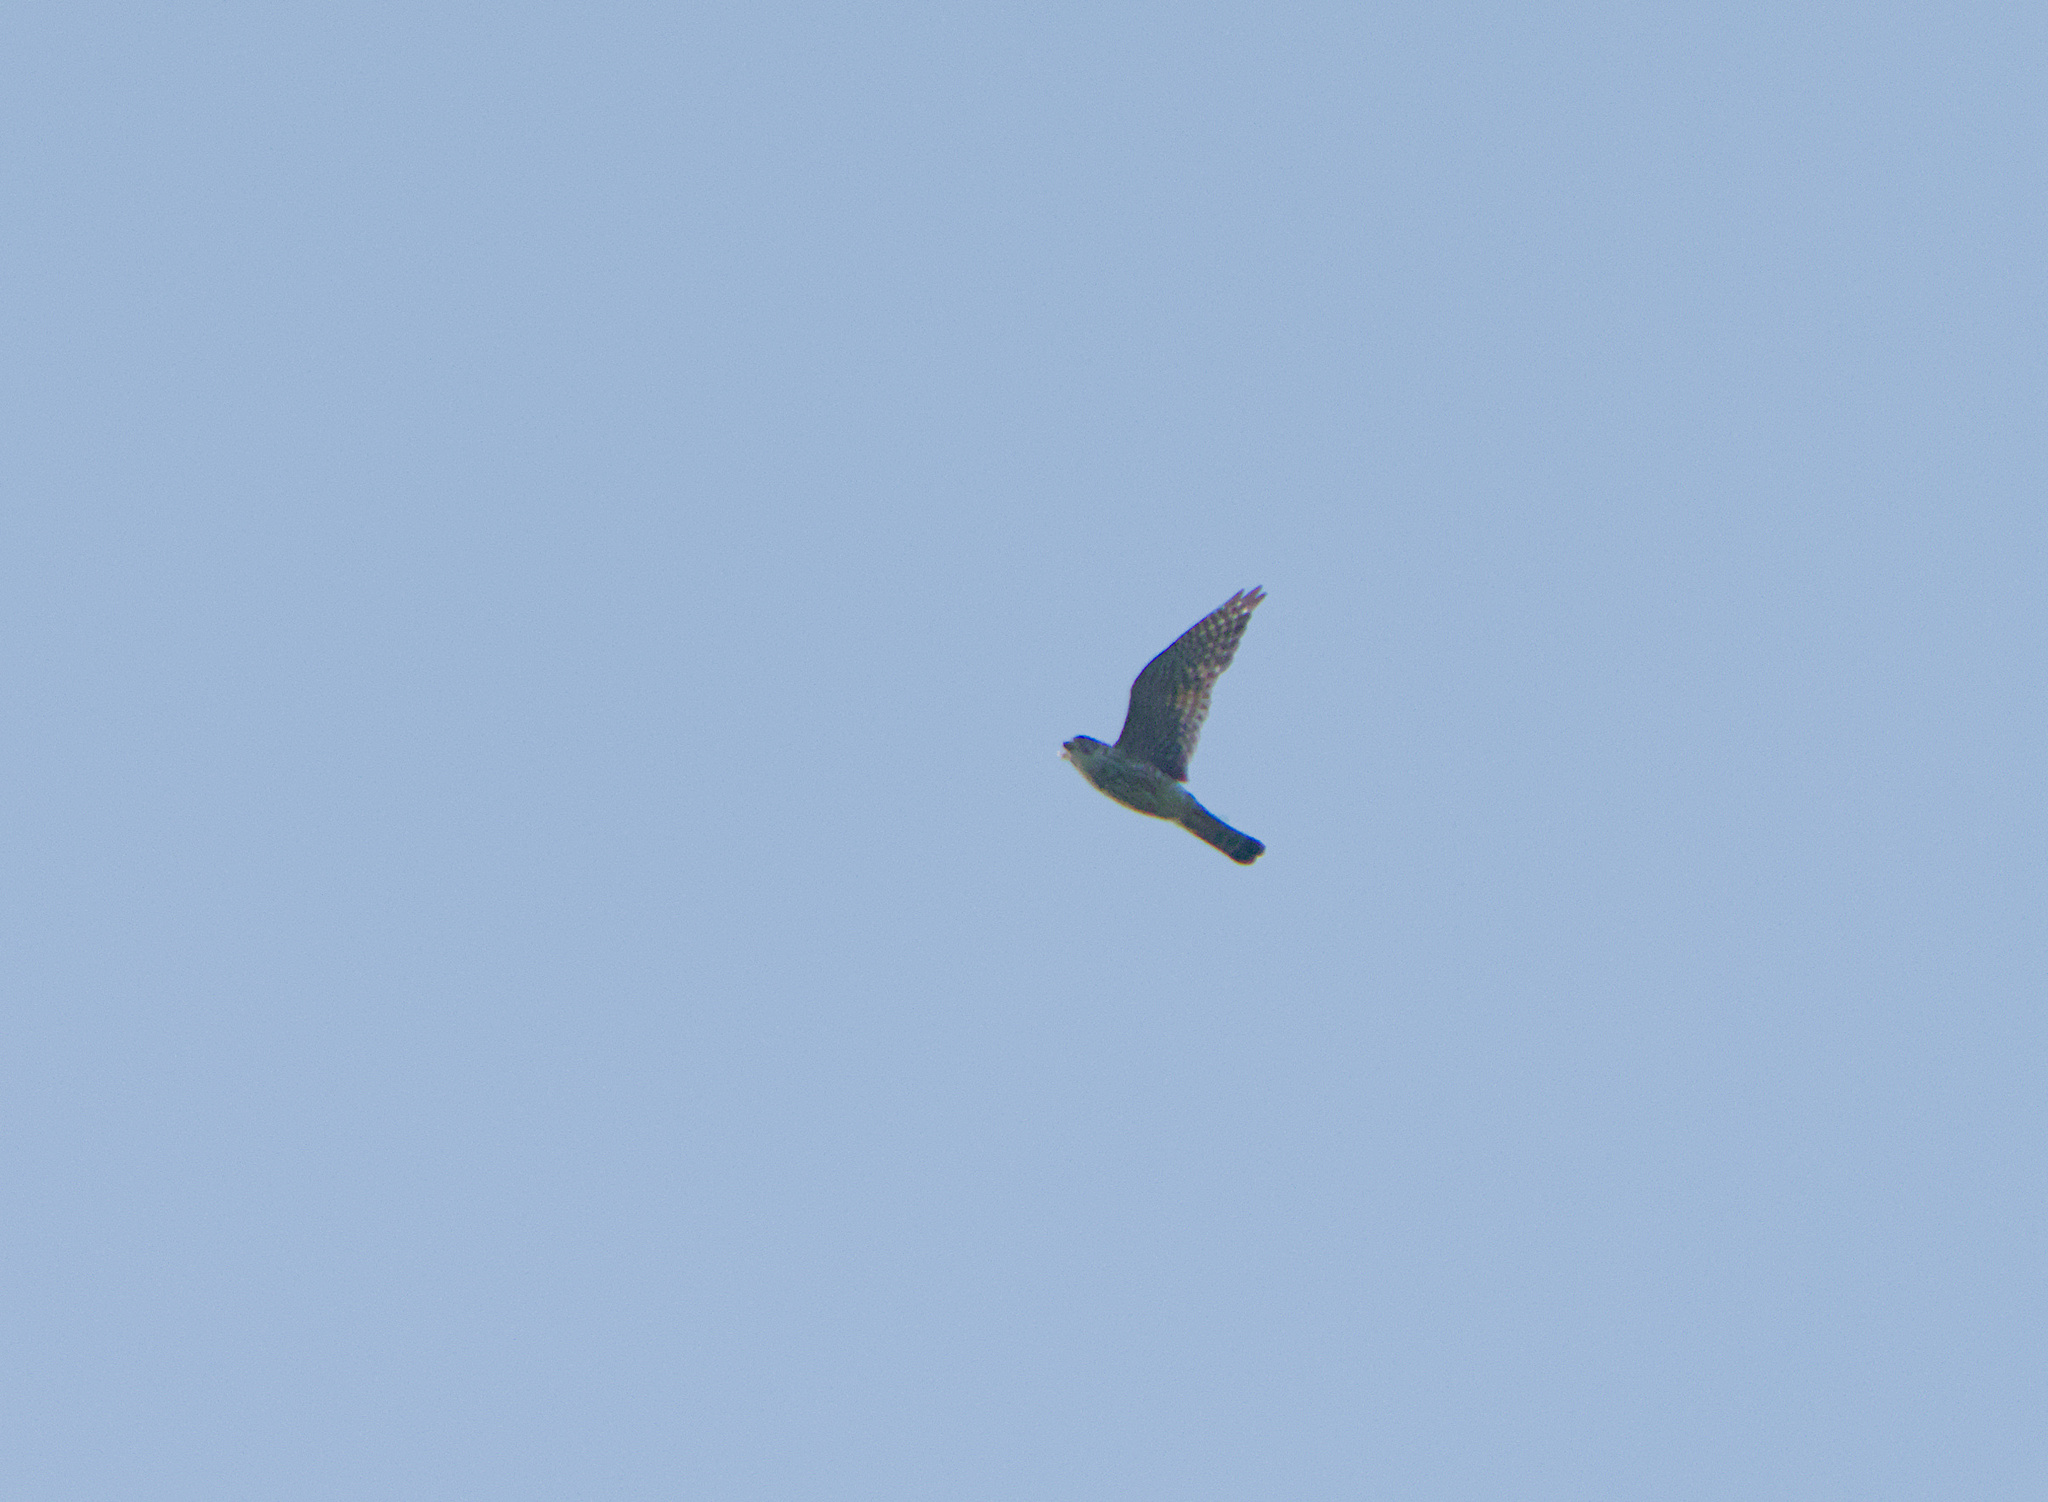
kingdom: Animalia
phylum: Chordata
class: Aves
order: Falconiformes
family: Falconidae
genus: Falco
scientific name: Falco columbarius
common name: Merlin
